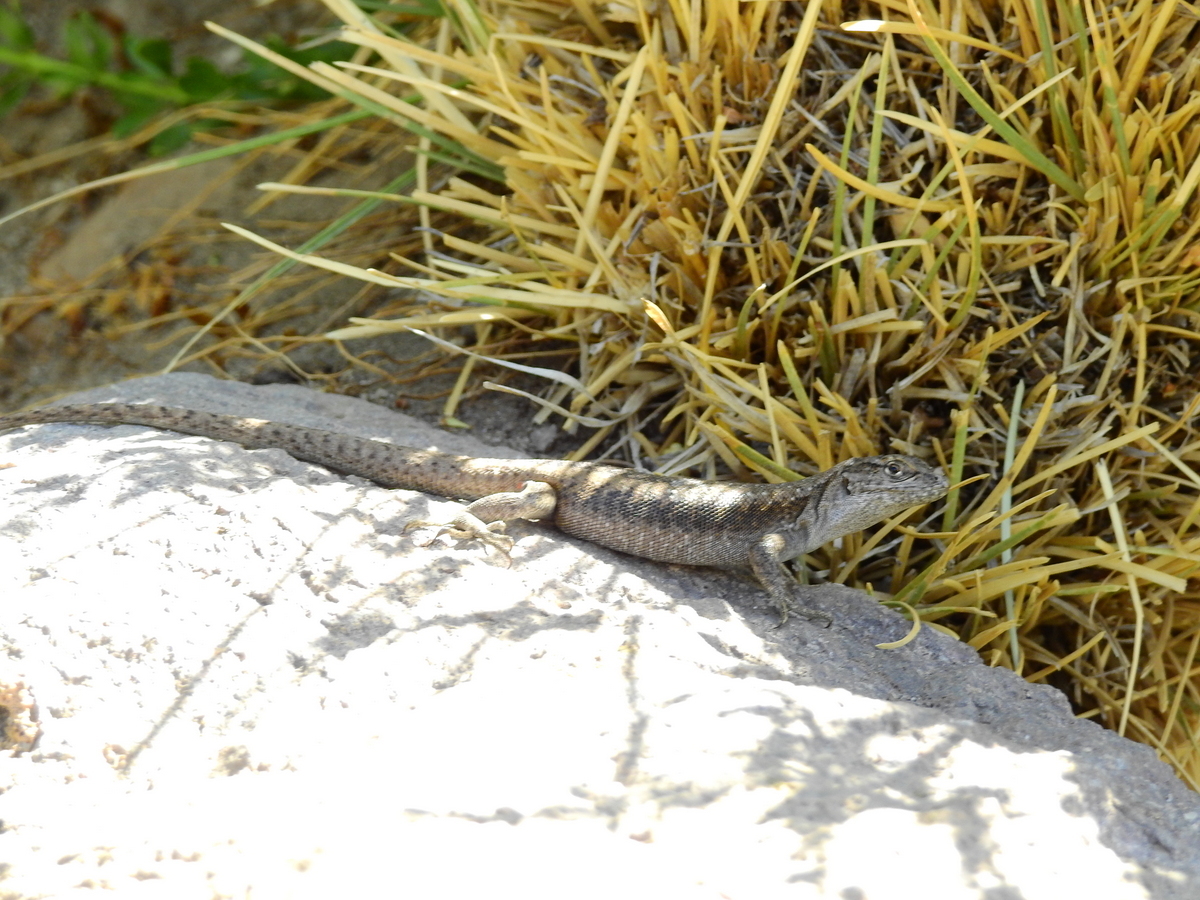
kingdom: Animalia
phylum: Chordata
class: Squamata
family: Liolaemidae
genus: Liolaemus
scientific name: Liolaemus smaug
